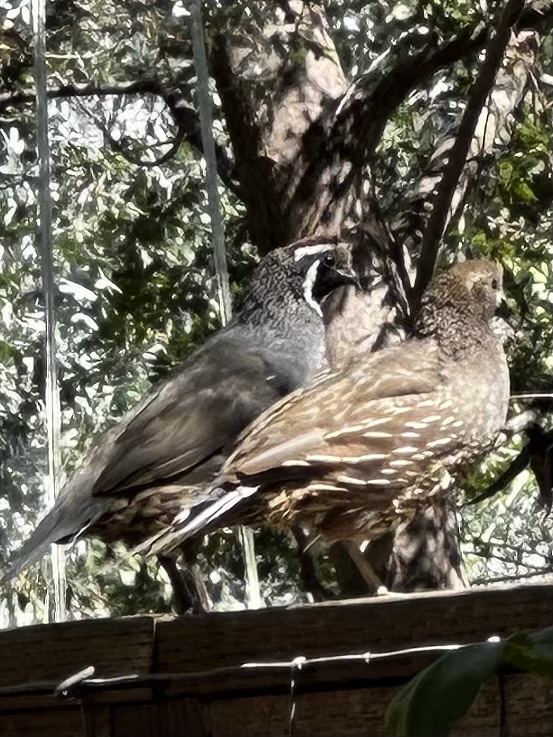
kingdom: Animalia
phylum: Chordata
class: Aves
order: Galliformes
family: Odontophoridae
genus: Callipepla
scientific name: Callipepla californica
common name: California quail
